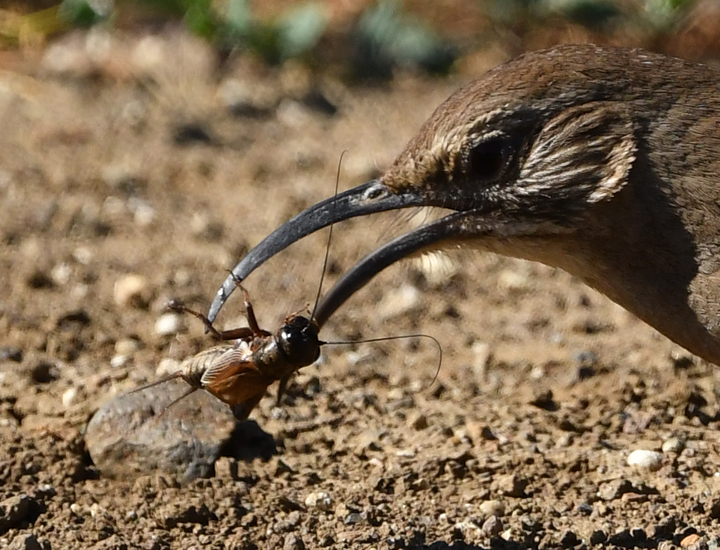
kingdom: Animalia
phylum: Arthropoda
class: Insecta
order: Orthoptera
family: Gryllidae
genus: Gryllus
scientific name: Gryllus
